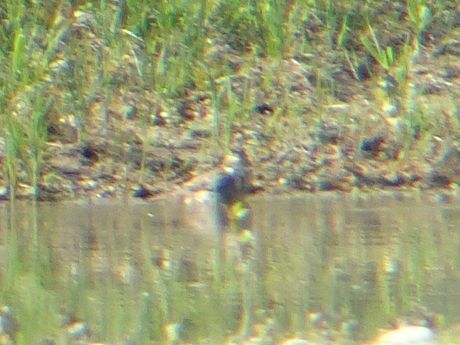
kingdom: Animalia
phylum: Chordata
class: Aves
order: Passeriformes
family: Emberizidae
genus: Emberiza
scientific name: Emberiza calandra
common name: Corn bunting
